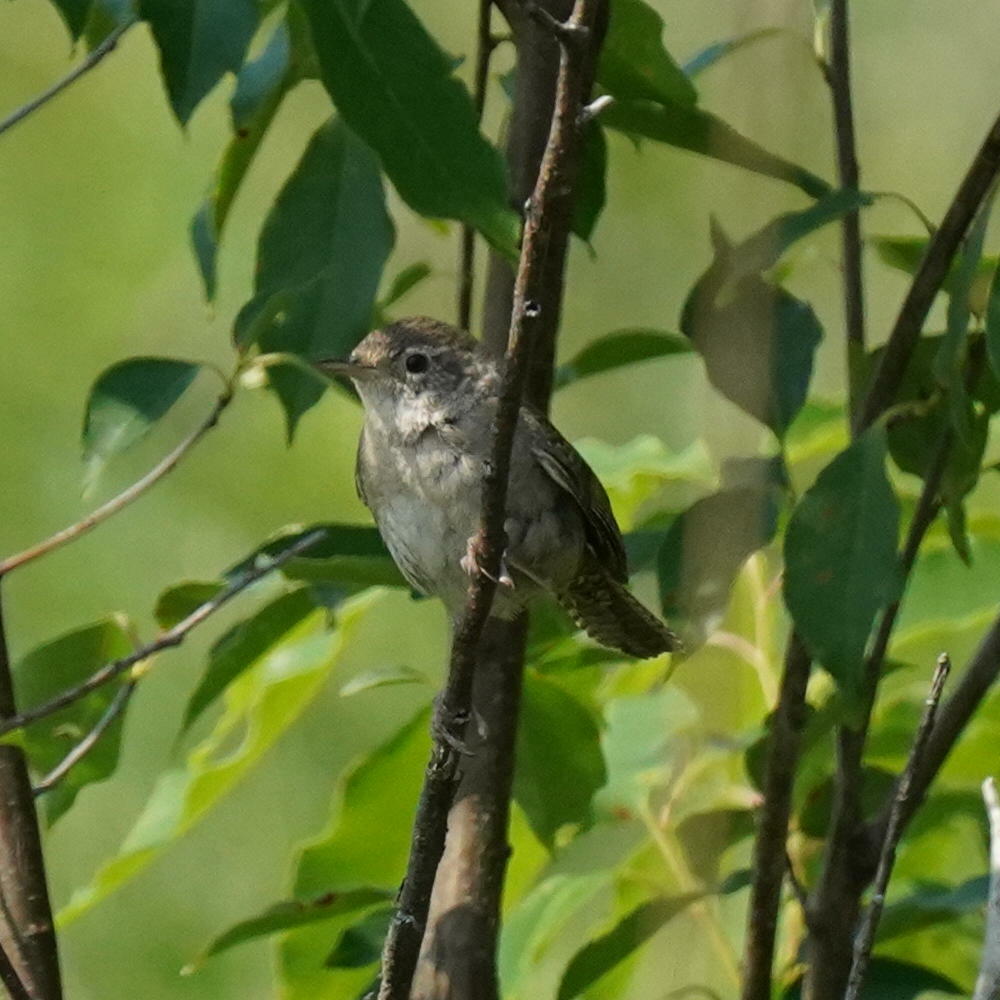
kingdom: Animalia
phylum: Chordata
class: Aves
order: Passeriformes
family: Troglodytidae
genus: Troglodytes
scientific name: Troglodytes aedon
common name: House wren
